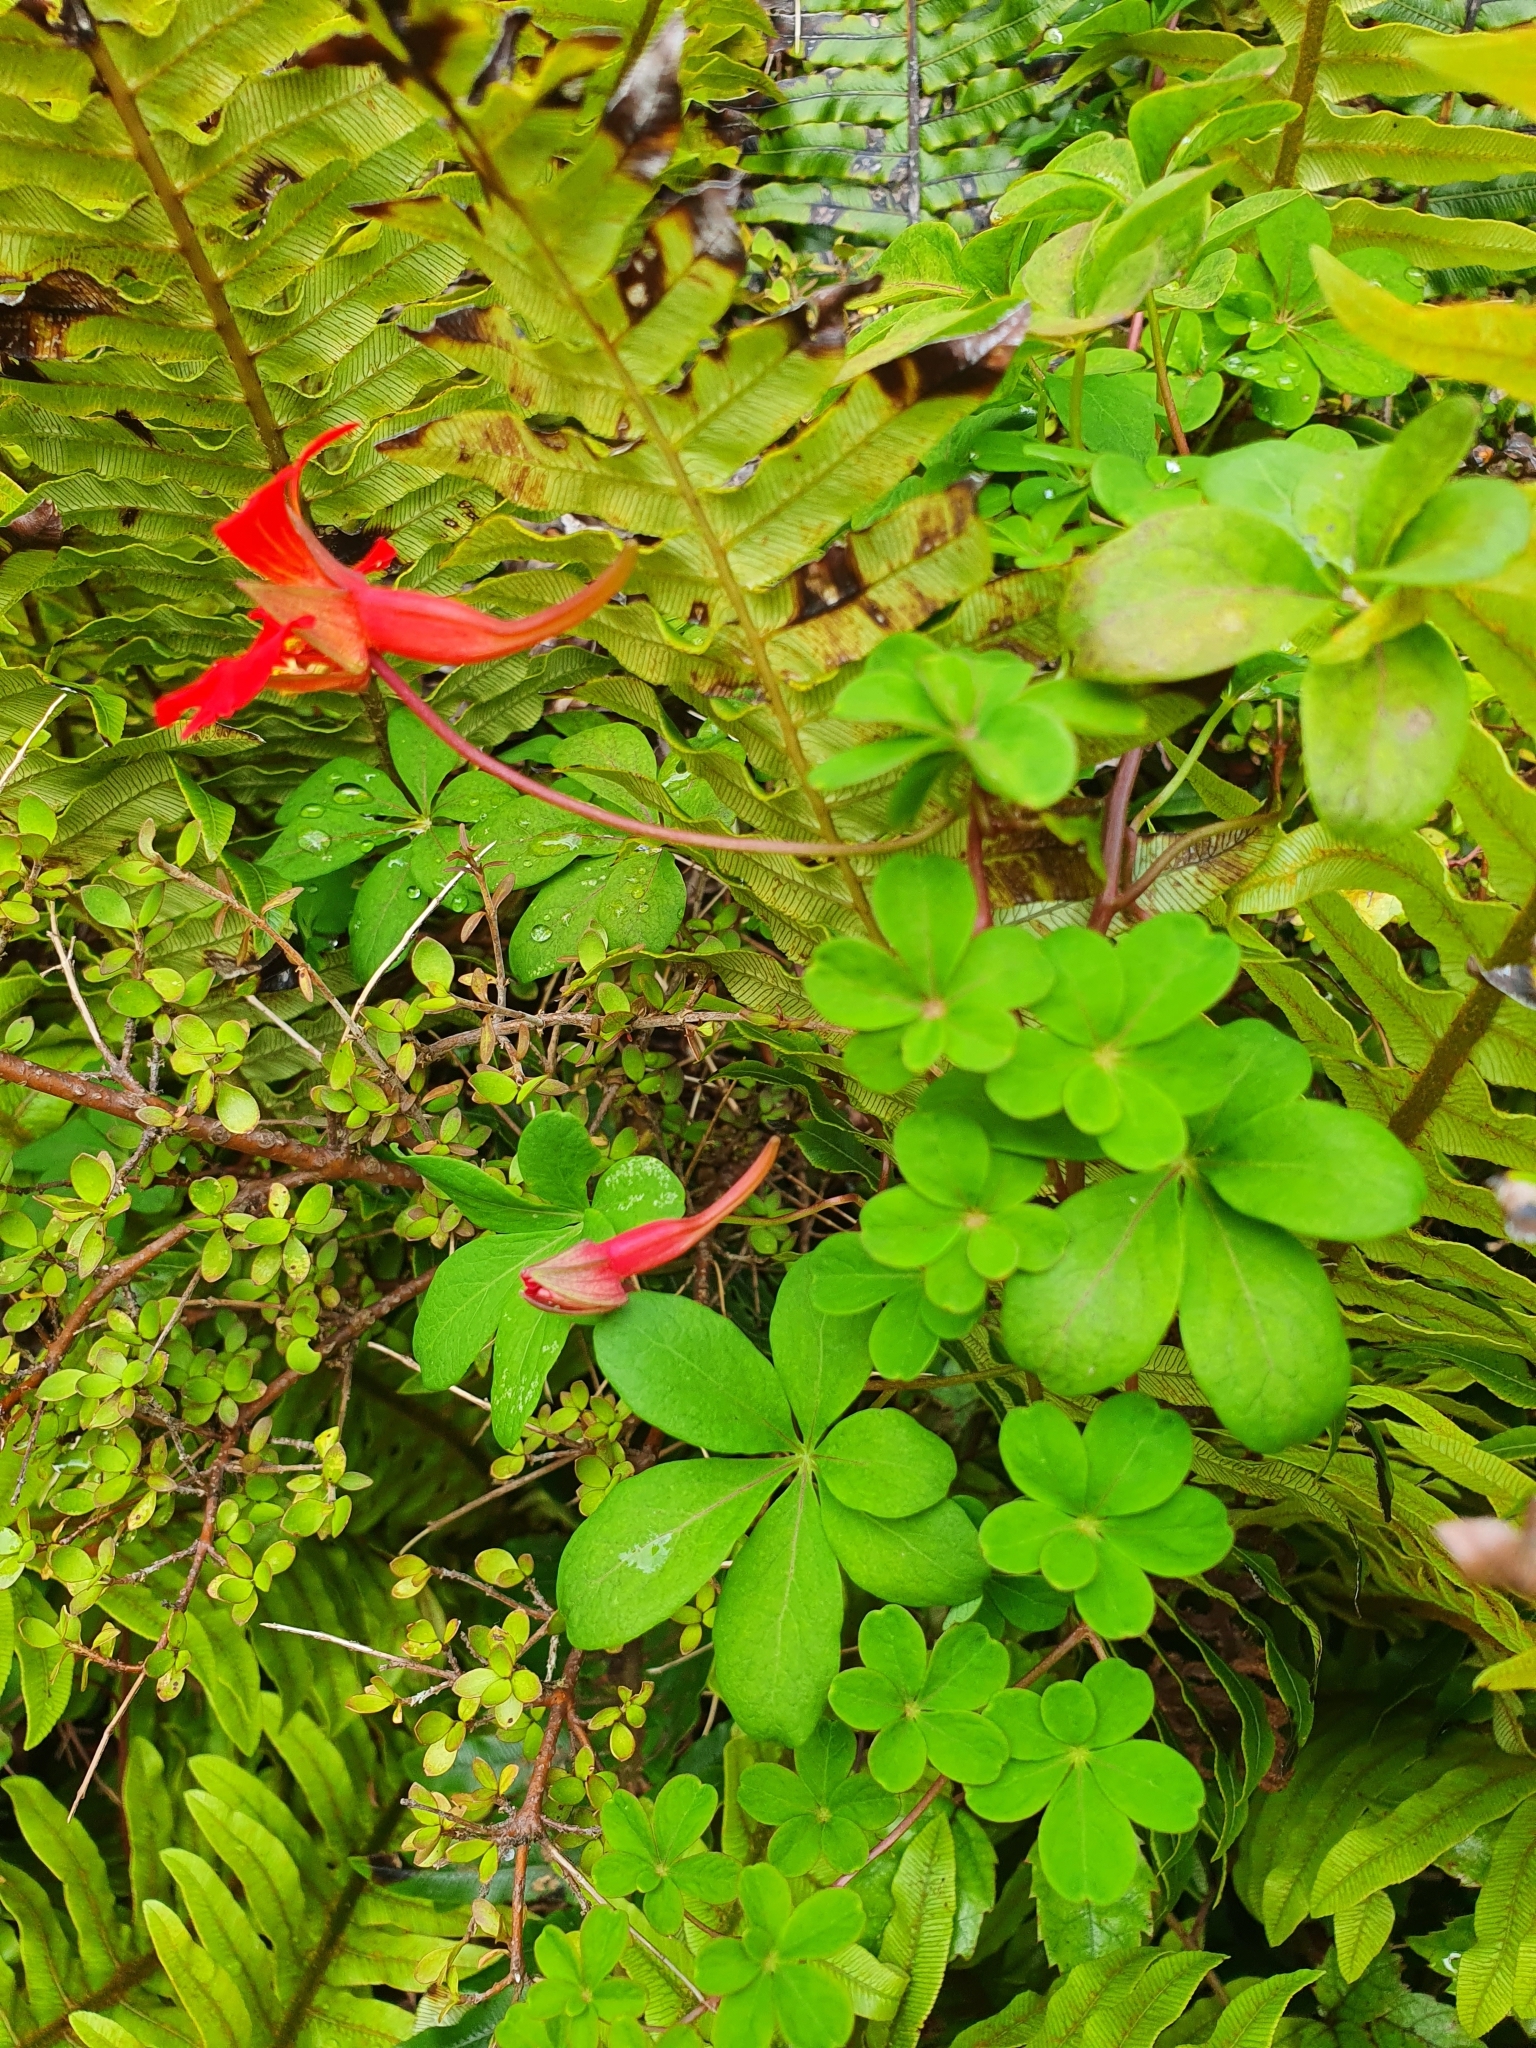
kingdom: Plantae
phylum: Tracheophyta
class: Magnoliopsida
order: Brassicales
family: Tropaeolaceae
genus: Tropaeolum
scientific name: Tropaeolum speciosum
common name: Flame nasturtium
